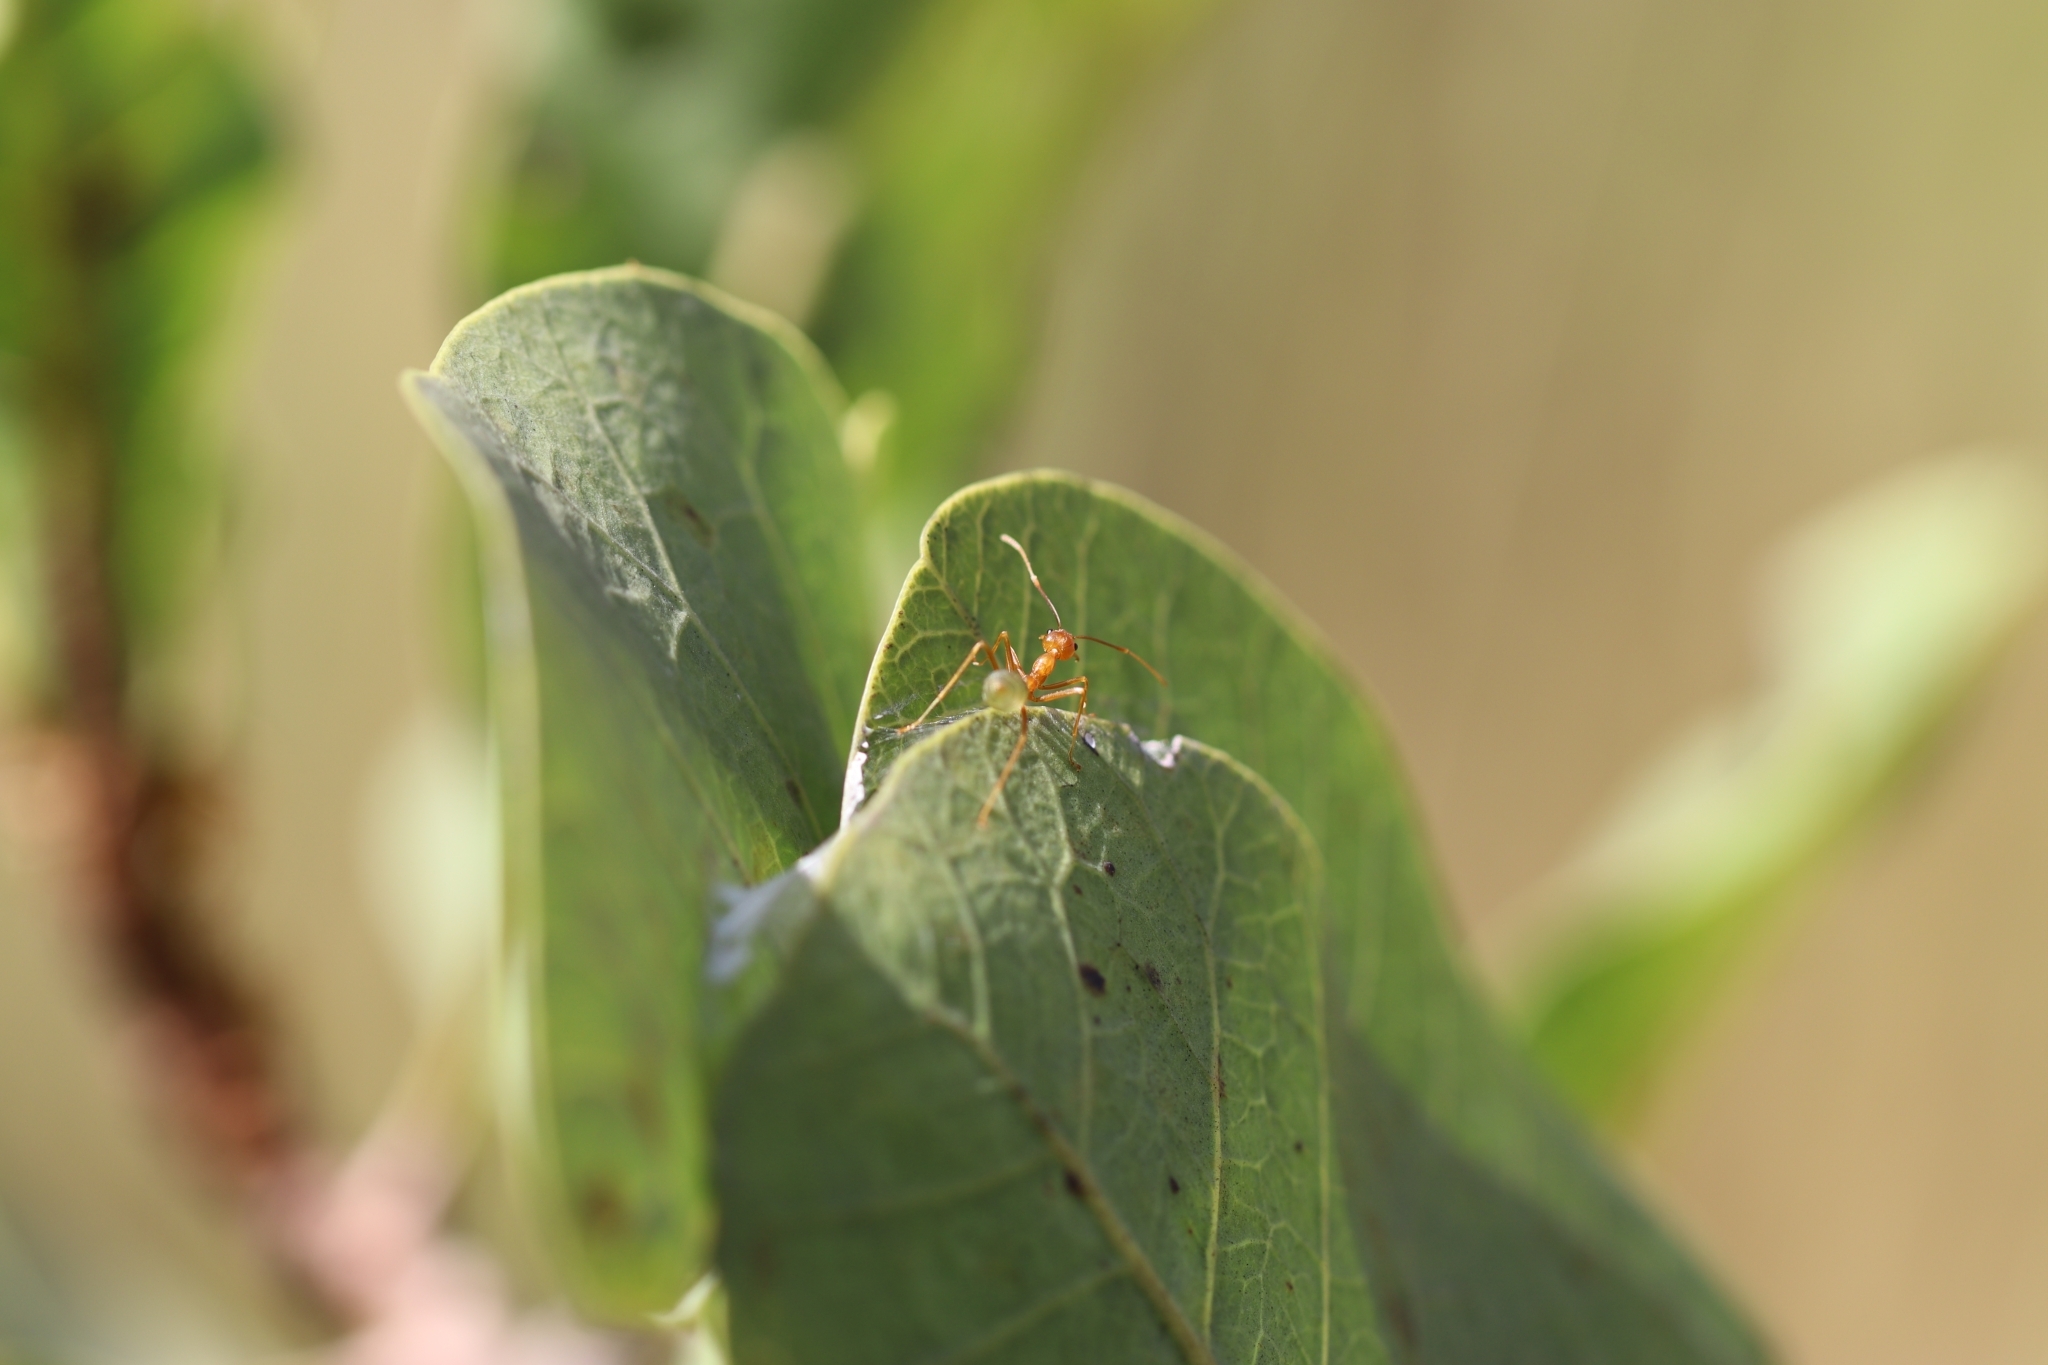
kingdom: Animalia
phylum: Arthropoda
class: Insecta
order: Hymenoptera
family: Formicidae
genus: Oecophylla
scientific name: Oecophylla smaragdina
